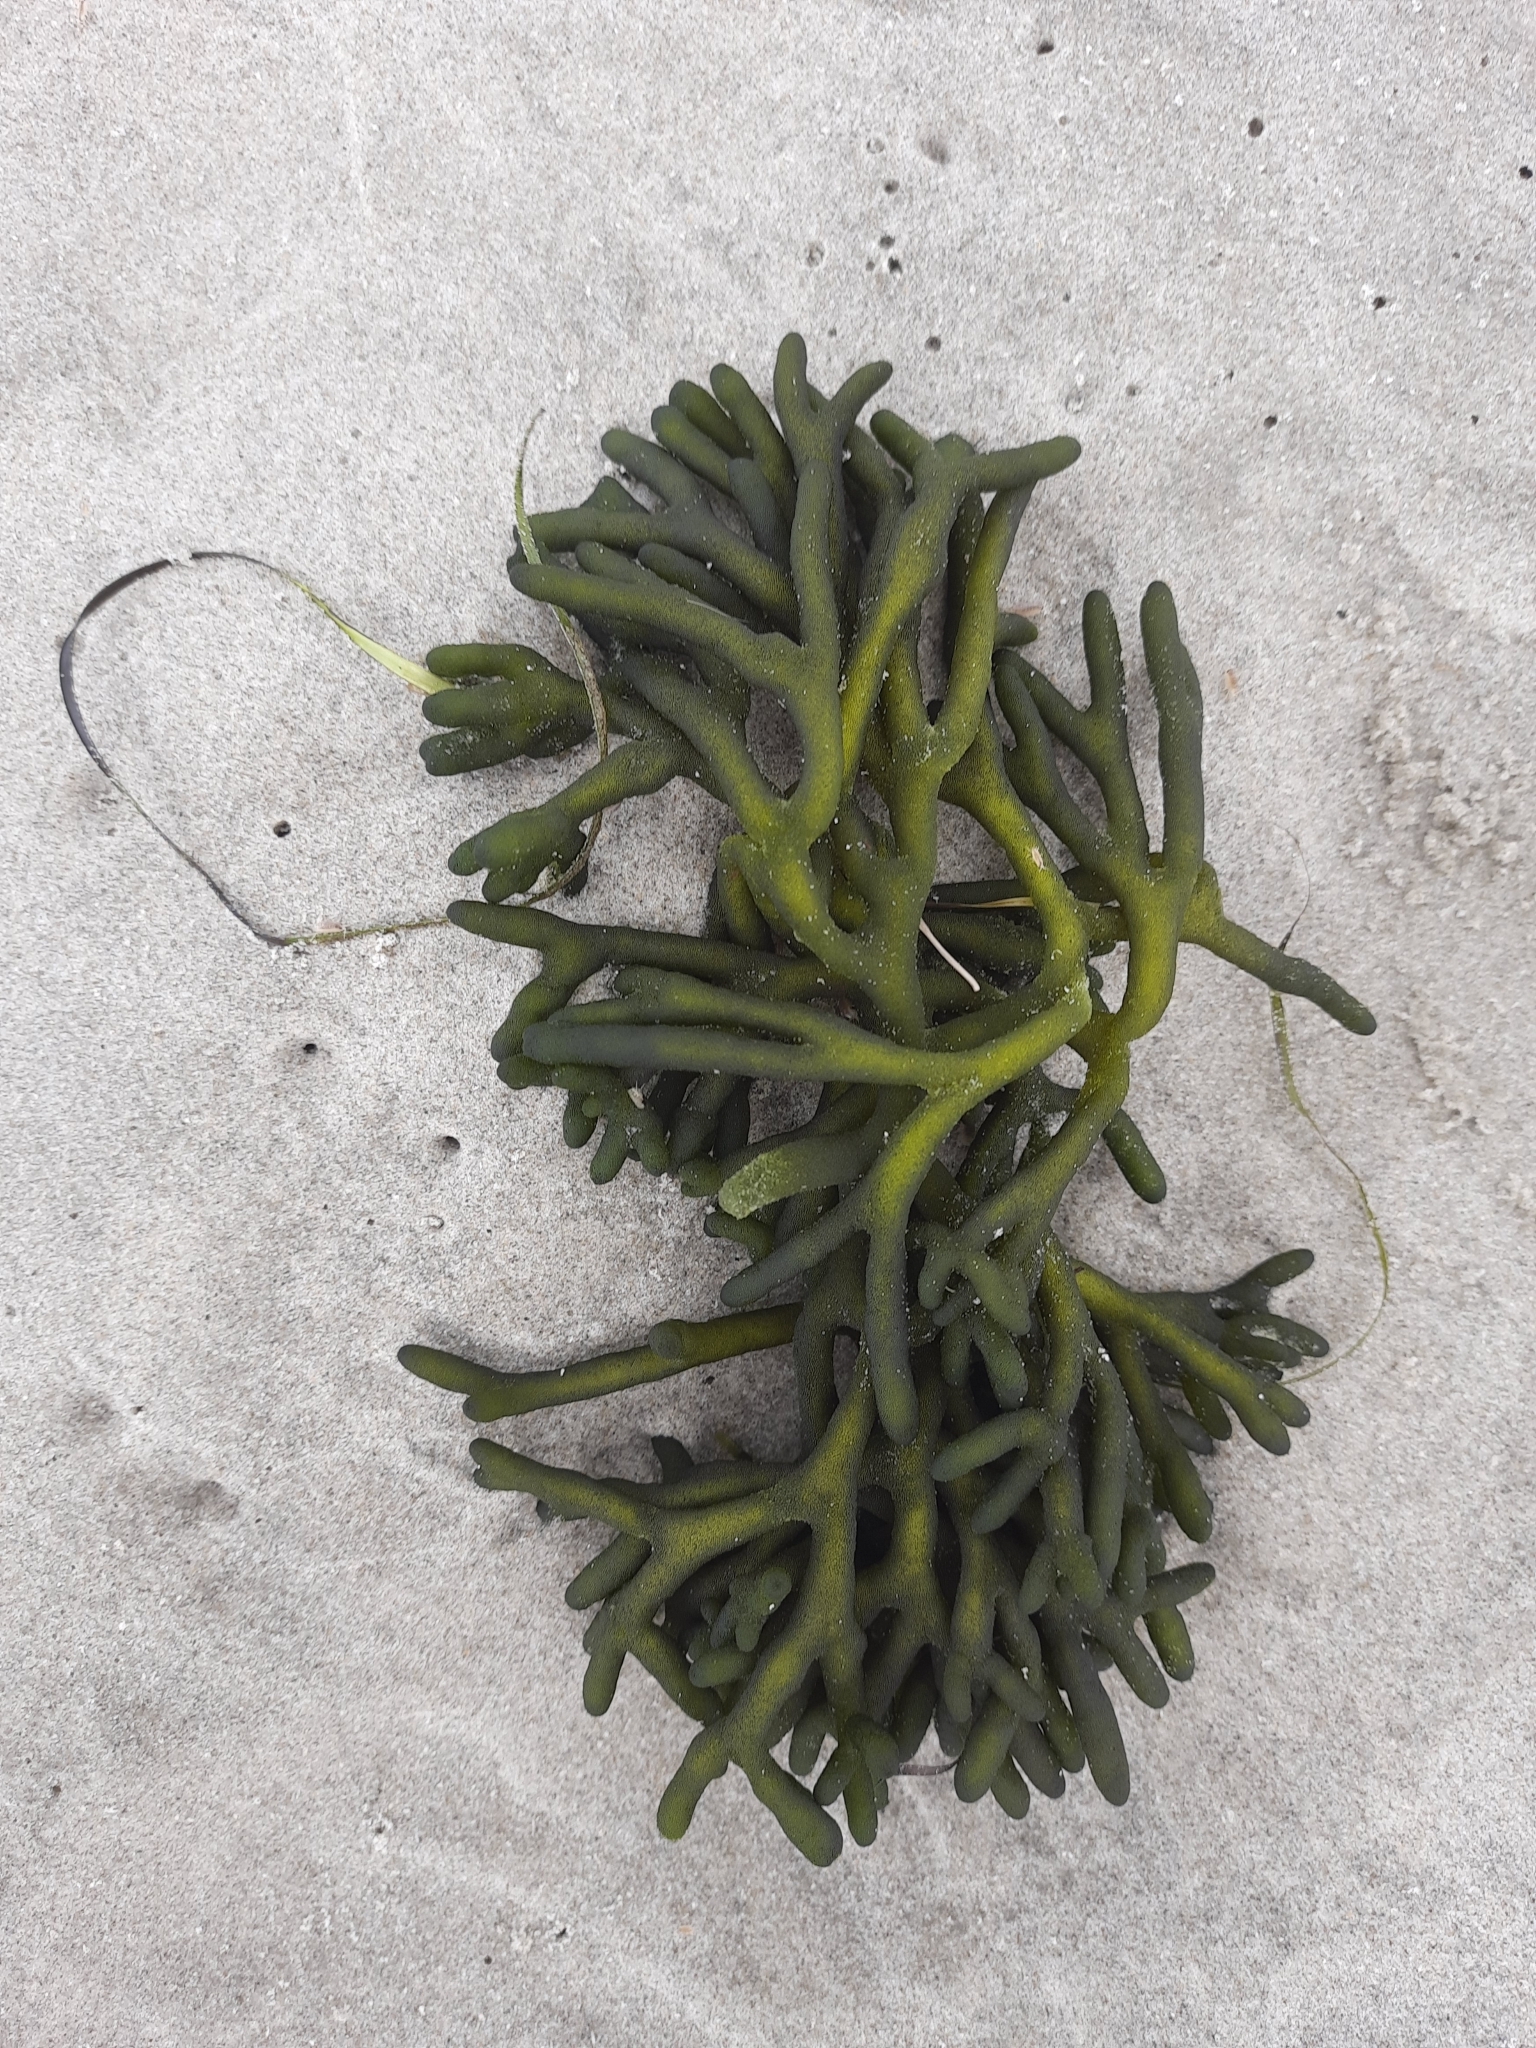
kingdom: Plantae
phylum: Chlorophyta
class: Ulvophyceae
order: Bryopsidales
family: Codiaceae
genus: Codium
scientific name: Codium fragile
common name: Dead man's fingers
